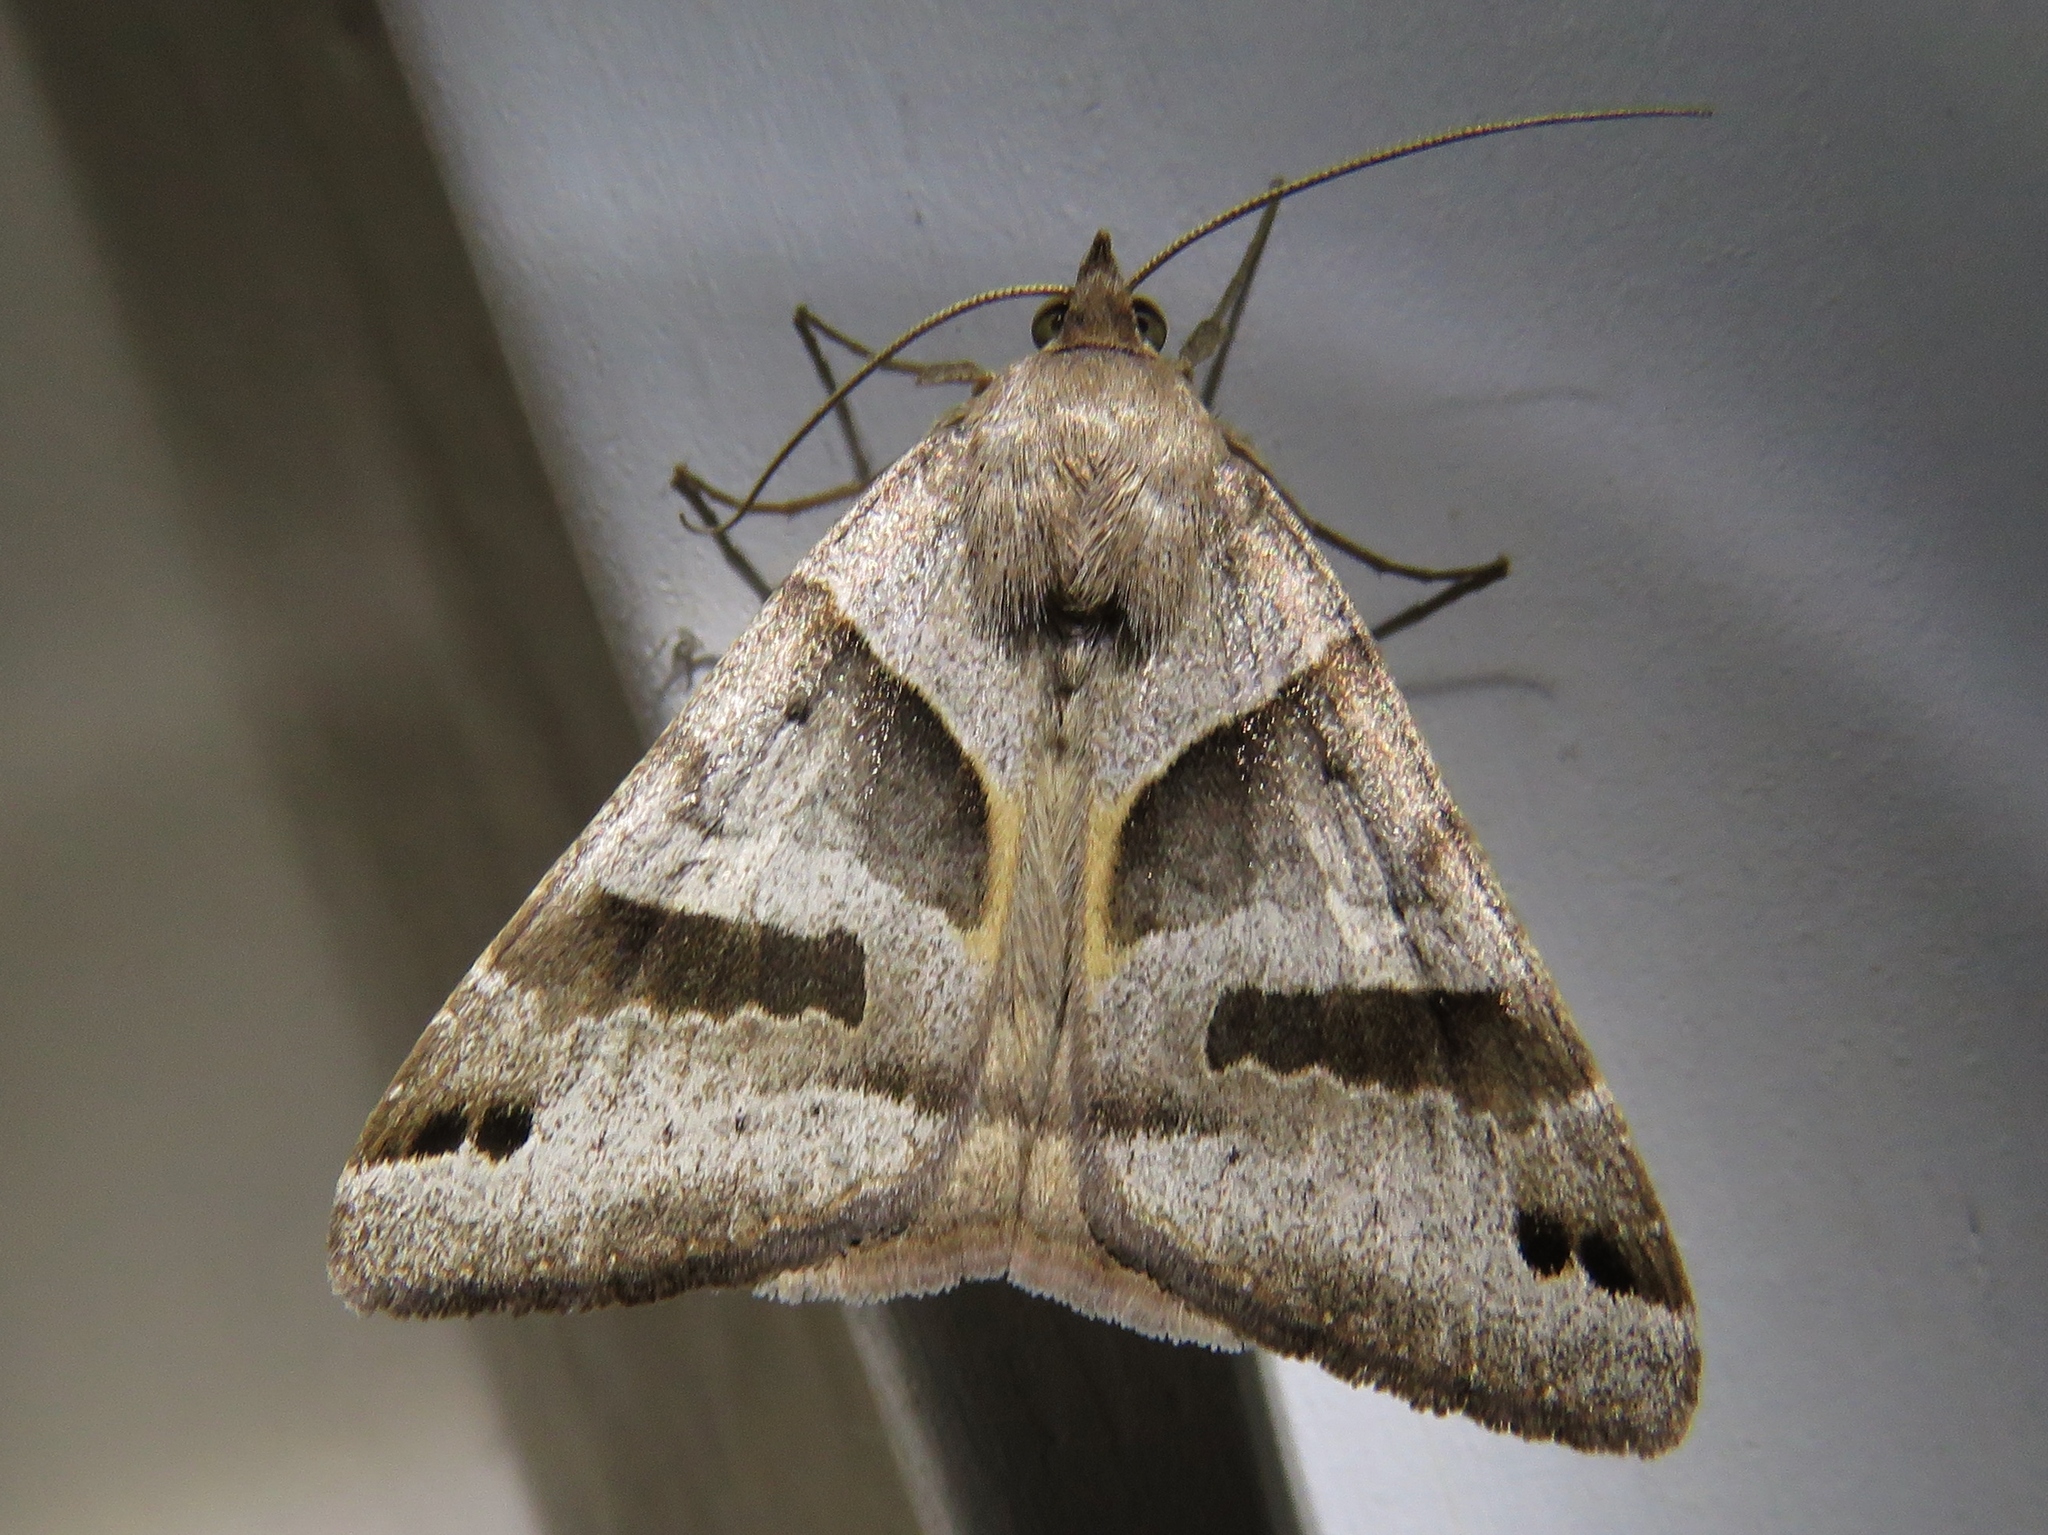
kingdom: Animalia
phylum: Arthropoda
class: Insecta
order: Lepidoptera
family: Erebidae
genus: Caenurgina
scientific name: Caenurgina erechtea
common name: Forage looper moth
